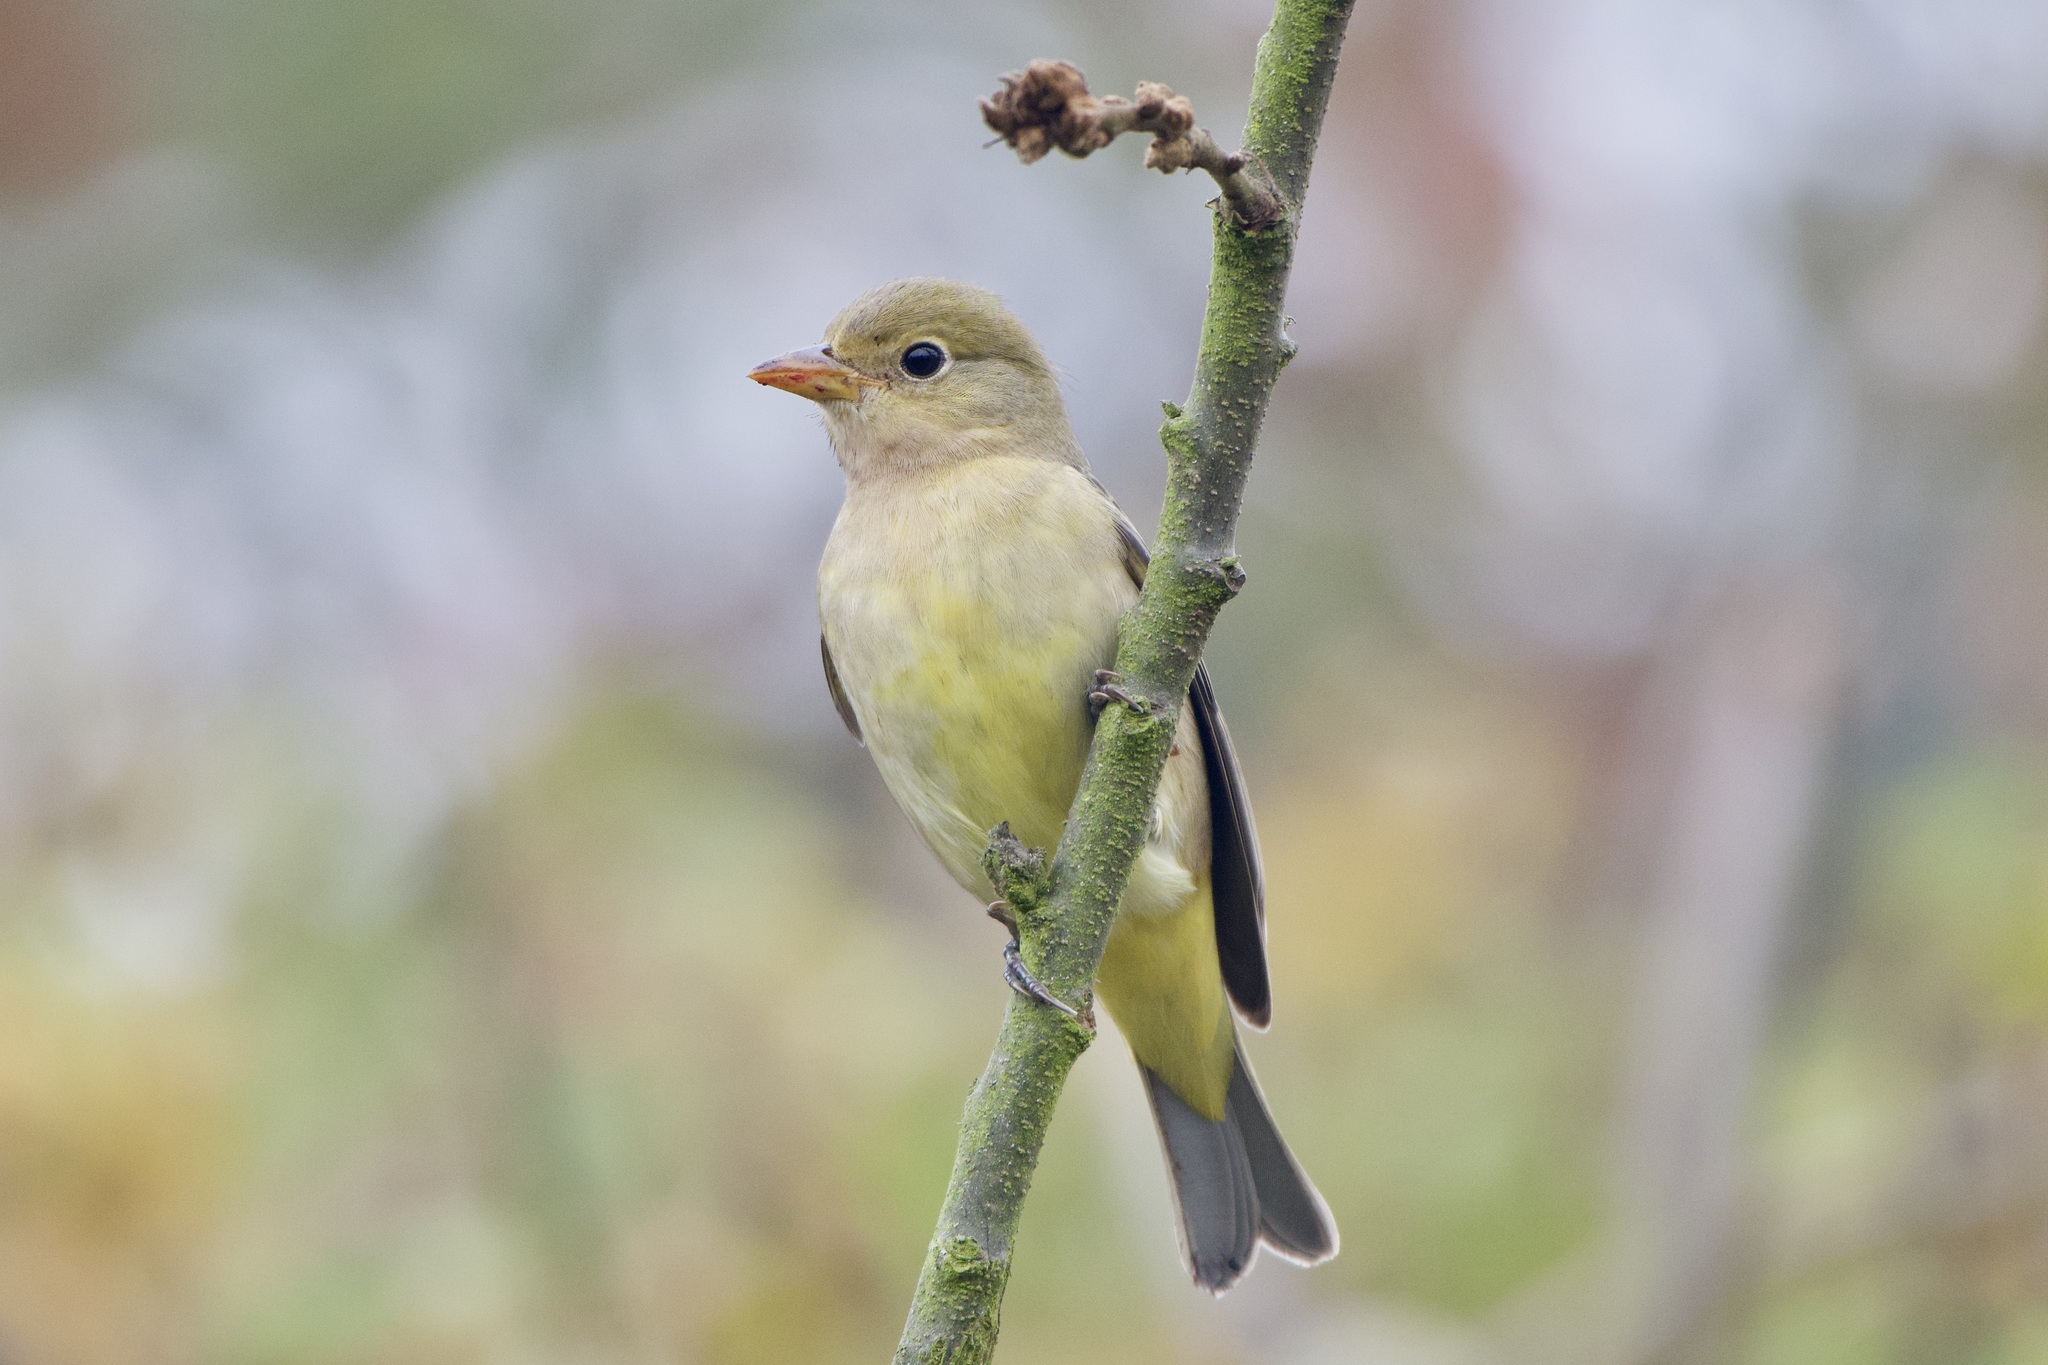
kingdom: Animalia
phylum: Chordata
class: Aves
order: Passeriformes
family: Cardinalidae
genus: Piranga
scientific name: Piranga ludoviciana
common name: Western tanager
